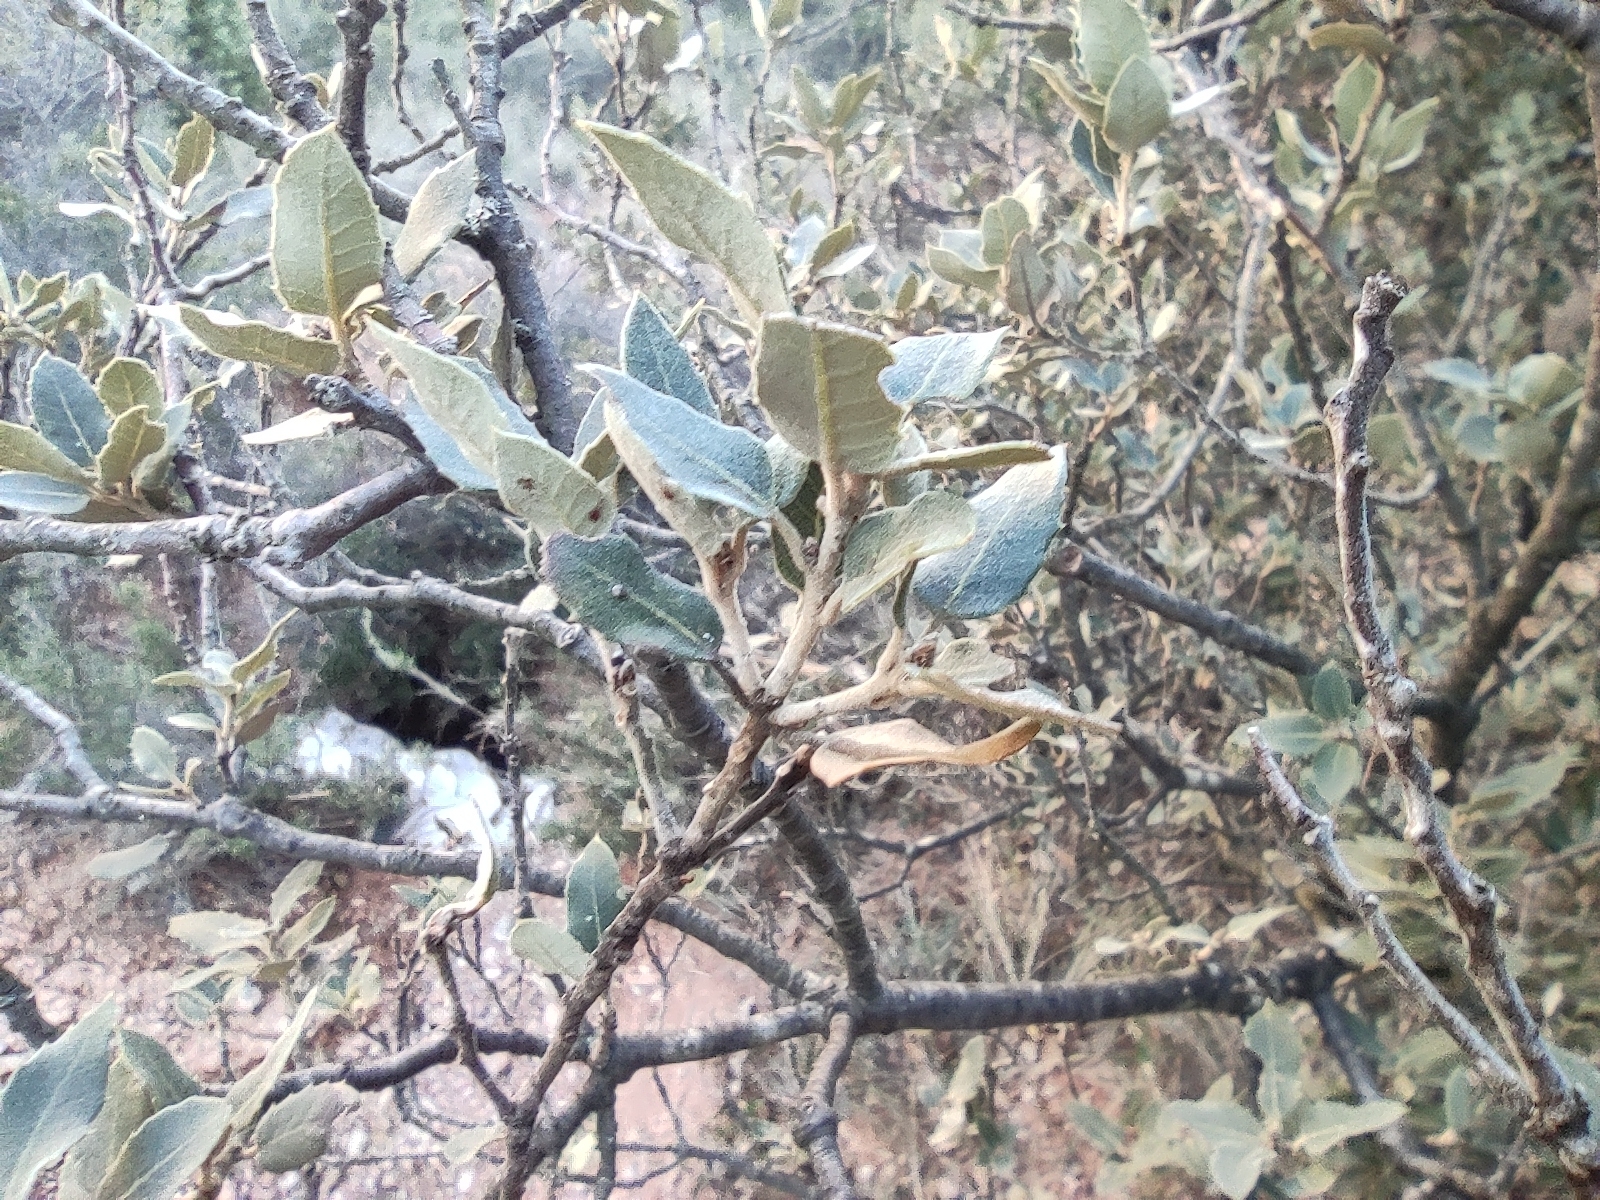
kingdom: Plantae
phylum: Tracheophyta
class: Magnoliopsida
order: Fagales
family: Fagaceae
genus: Quercus
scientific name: Quercus ilex
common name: Evergreen oak
